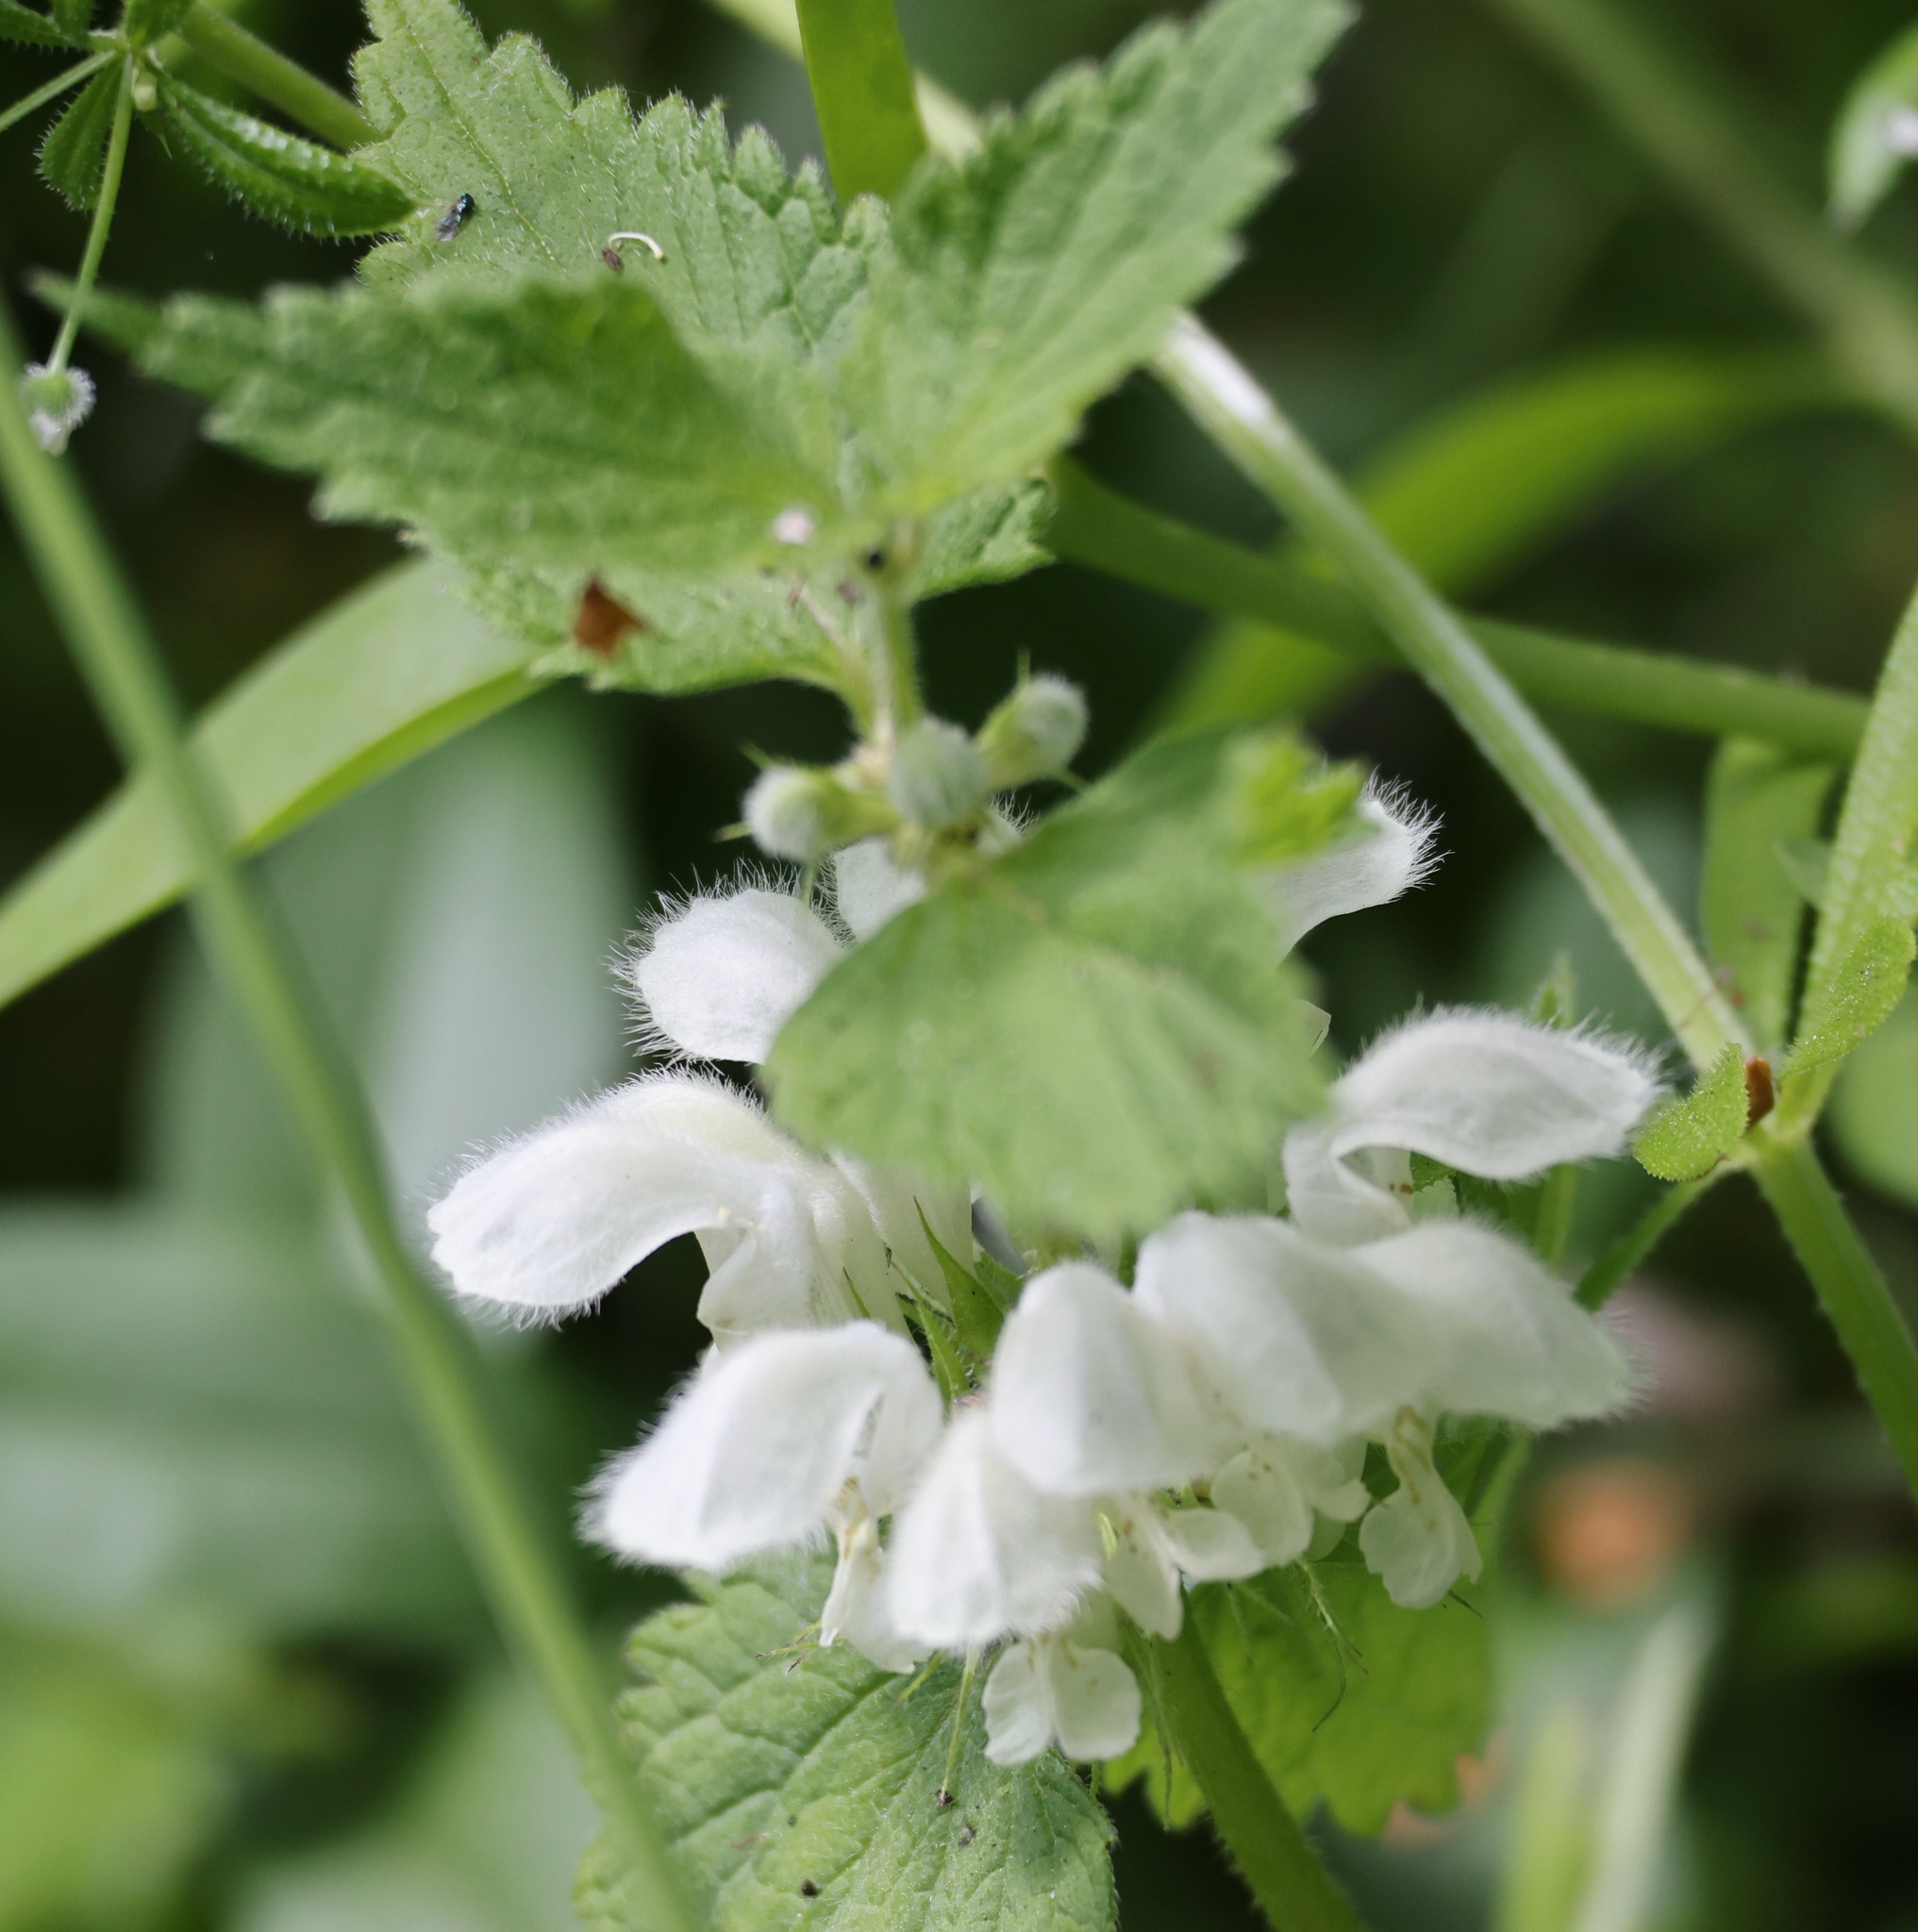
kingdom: Plantae
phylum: Tracheophyta
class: Magnoliopsida
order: Lamiales
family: Lamiaceae
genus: Lamium
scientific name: Lamium album
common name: White dead-nettle
